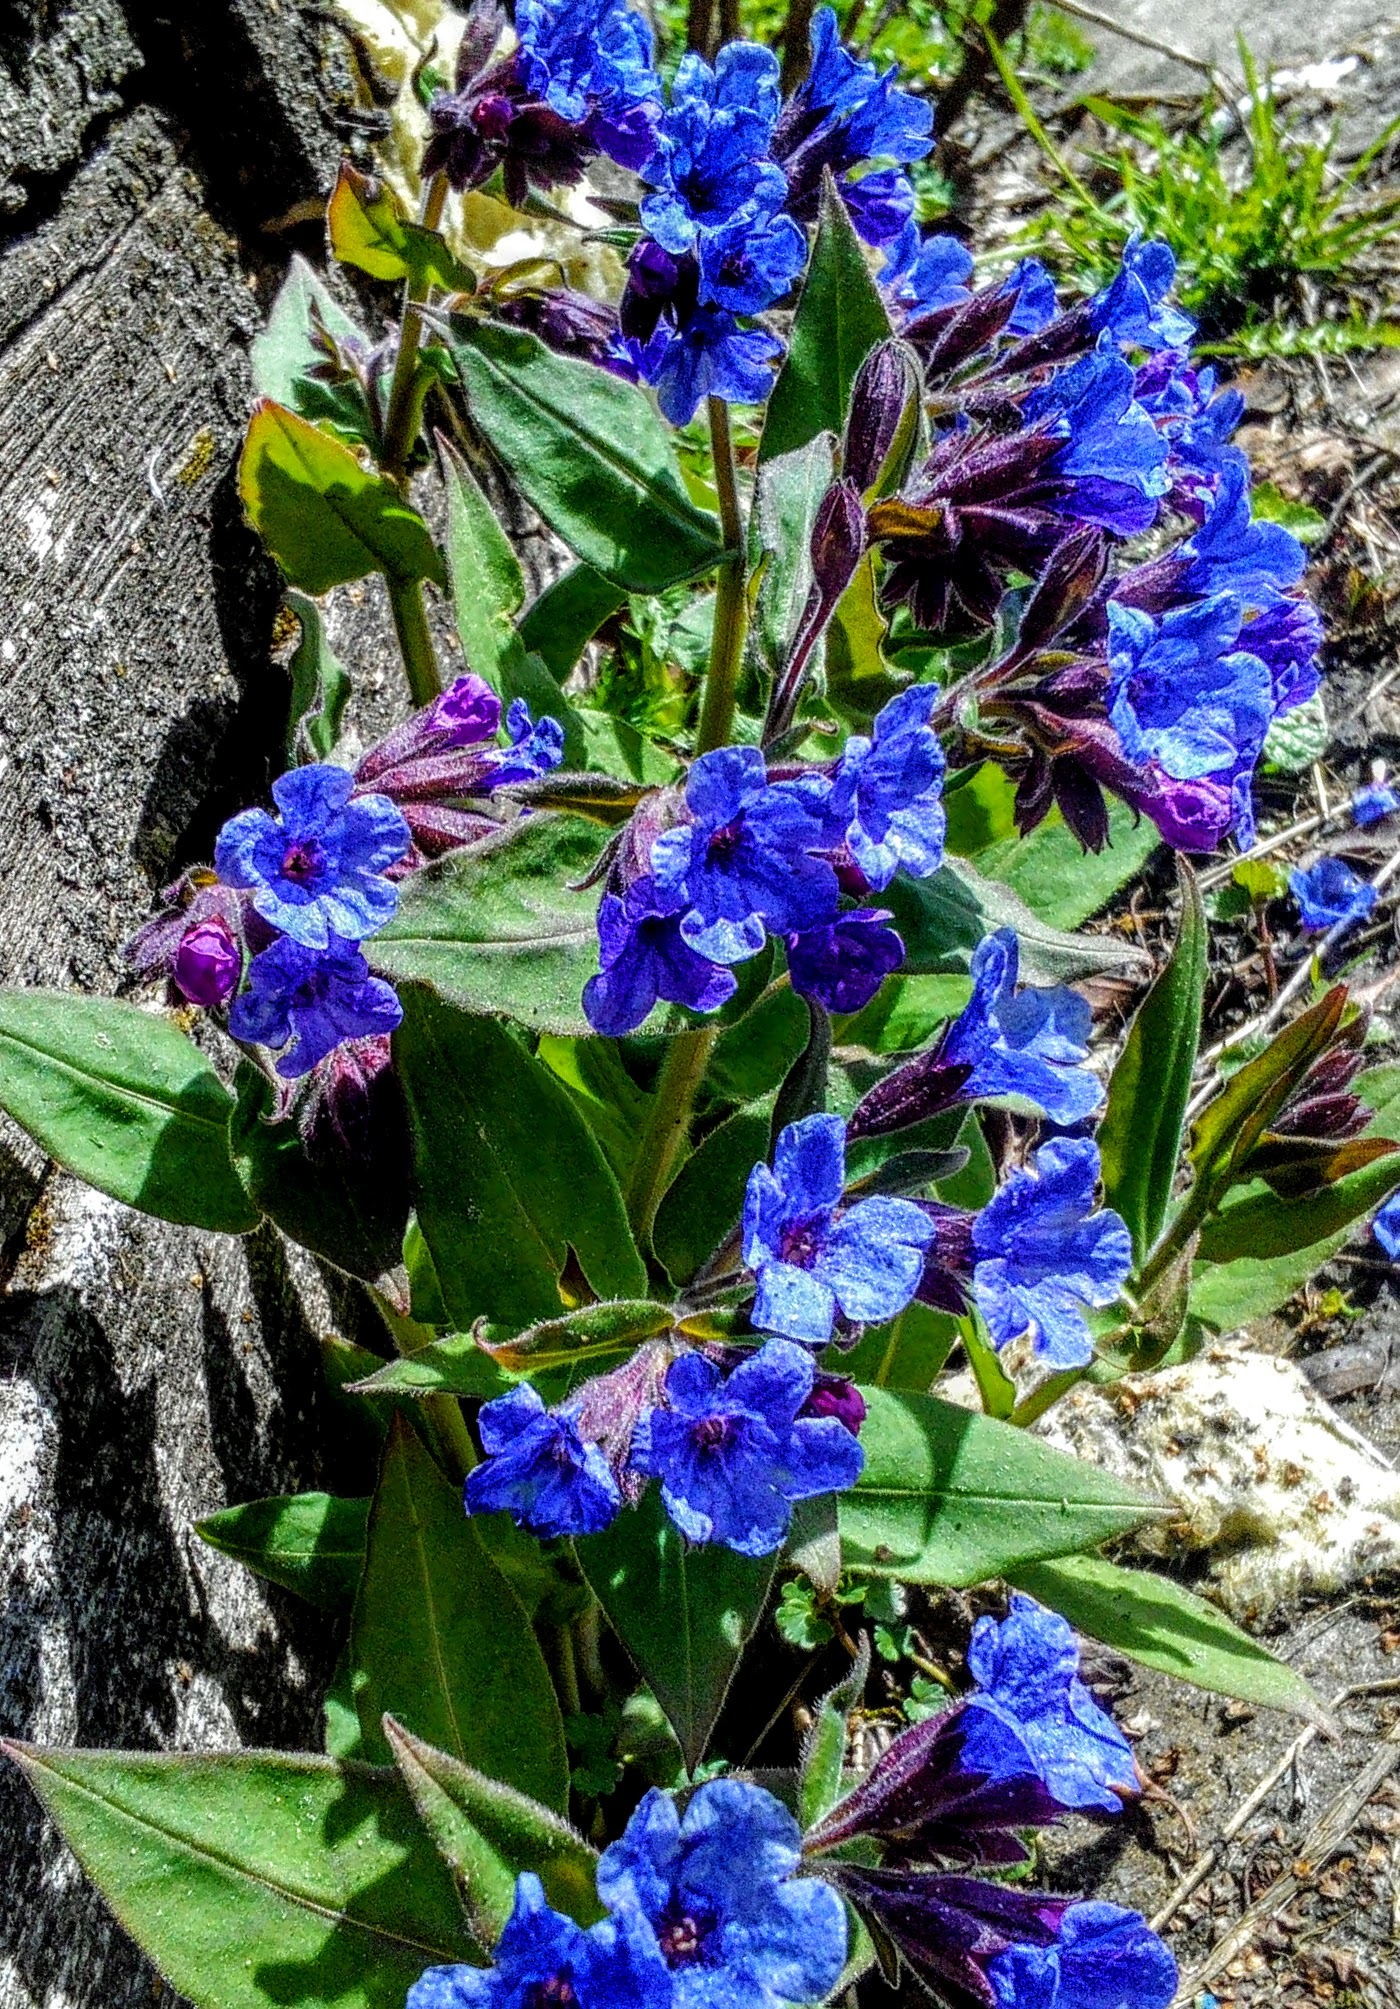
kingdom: Plantae
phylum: Tracheophyta
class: Magnoliopsida
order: Boraginales
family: Boraginaceae
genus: Pulmonaria
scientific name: Pulmonaria mollis
